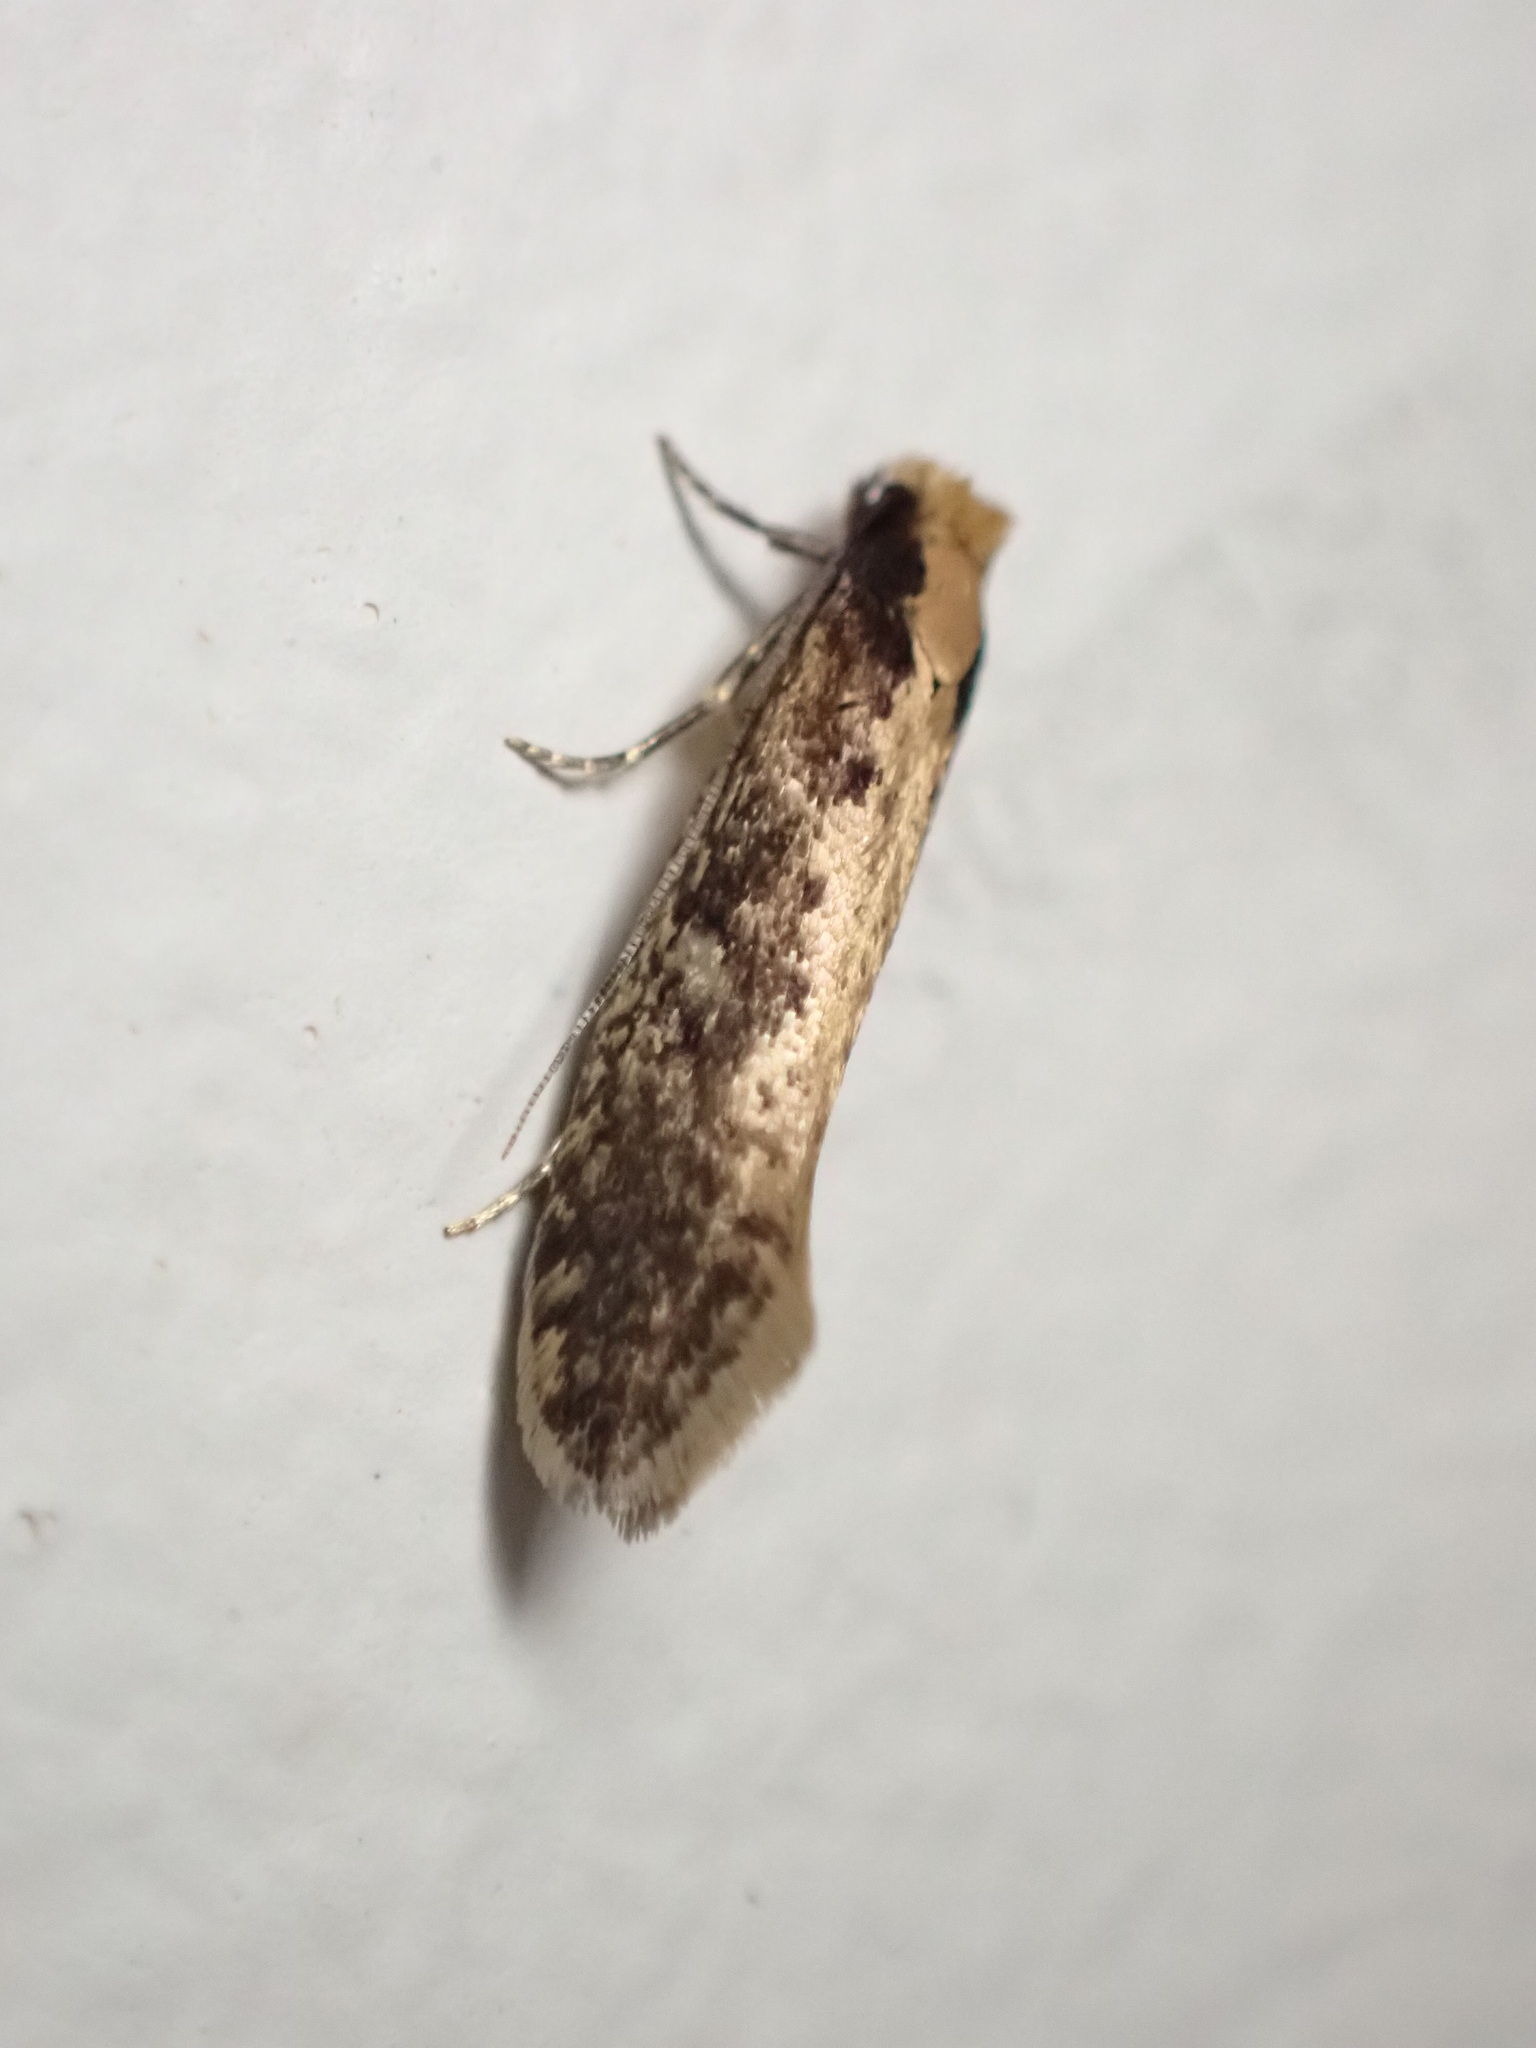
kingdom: Animalia
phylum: Arthropoda
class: Insecta
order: Lepidoptera
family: Tineidae
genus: Monopis
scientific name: Monopis crocicapitella
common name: Moth
